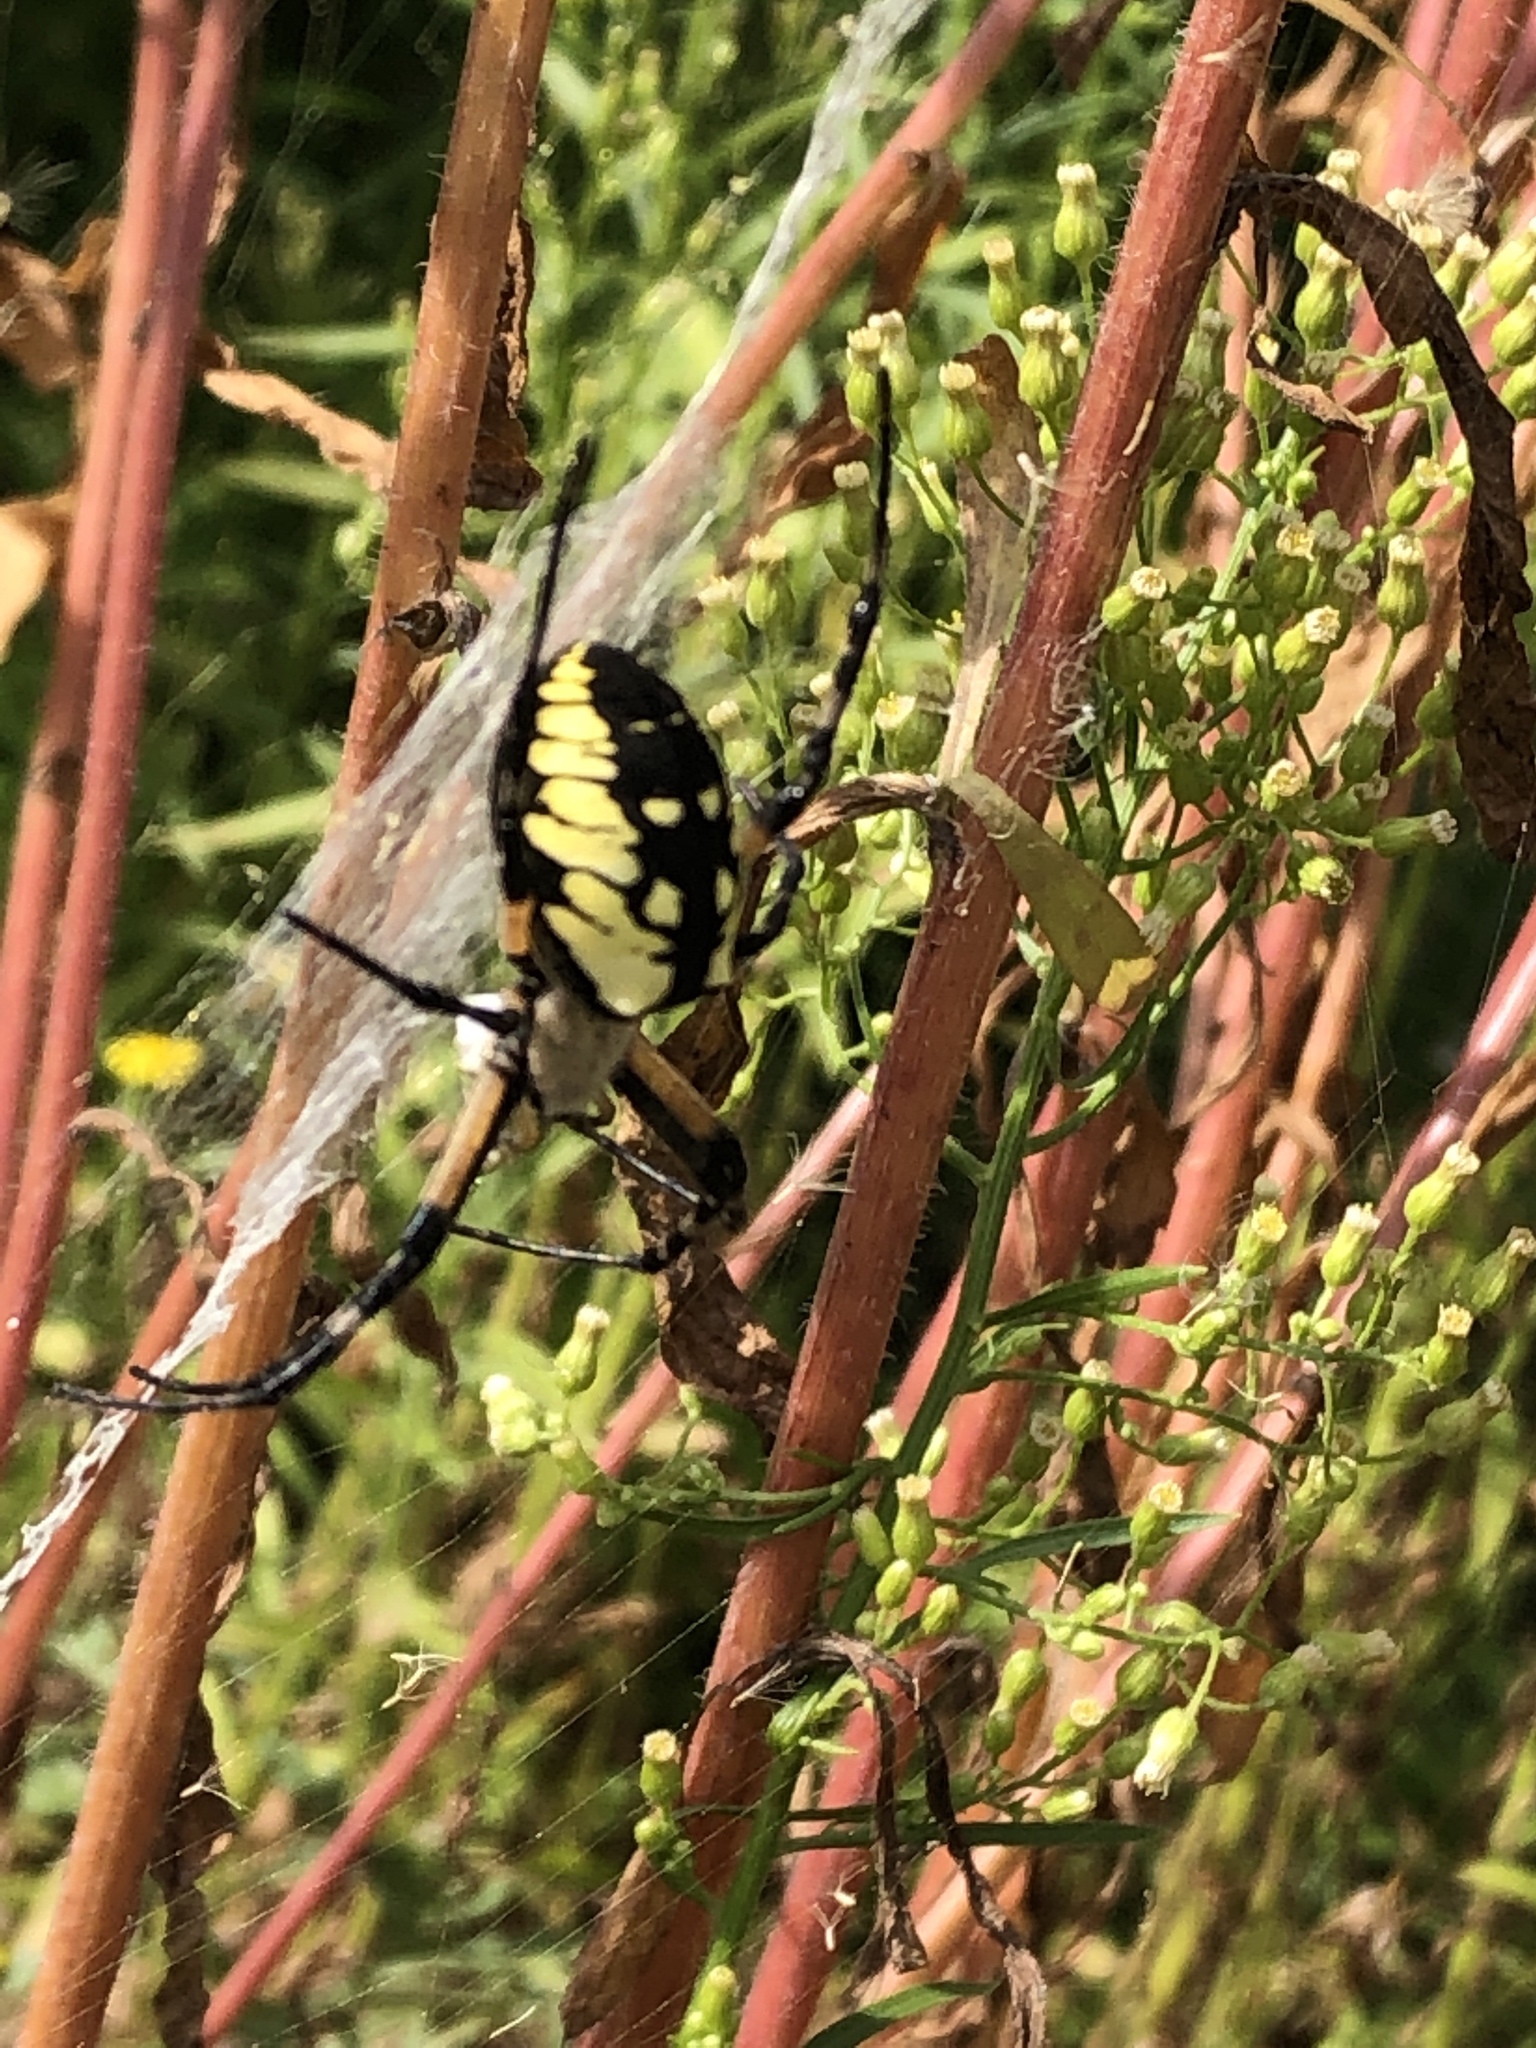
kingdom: Animalia
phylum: Arthropoda
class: Arachnida
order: Araneae
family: Araneidae
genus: Argiope
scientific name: Argiope aurantia
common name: Orb weavers
